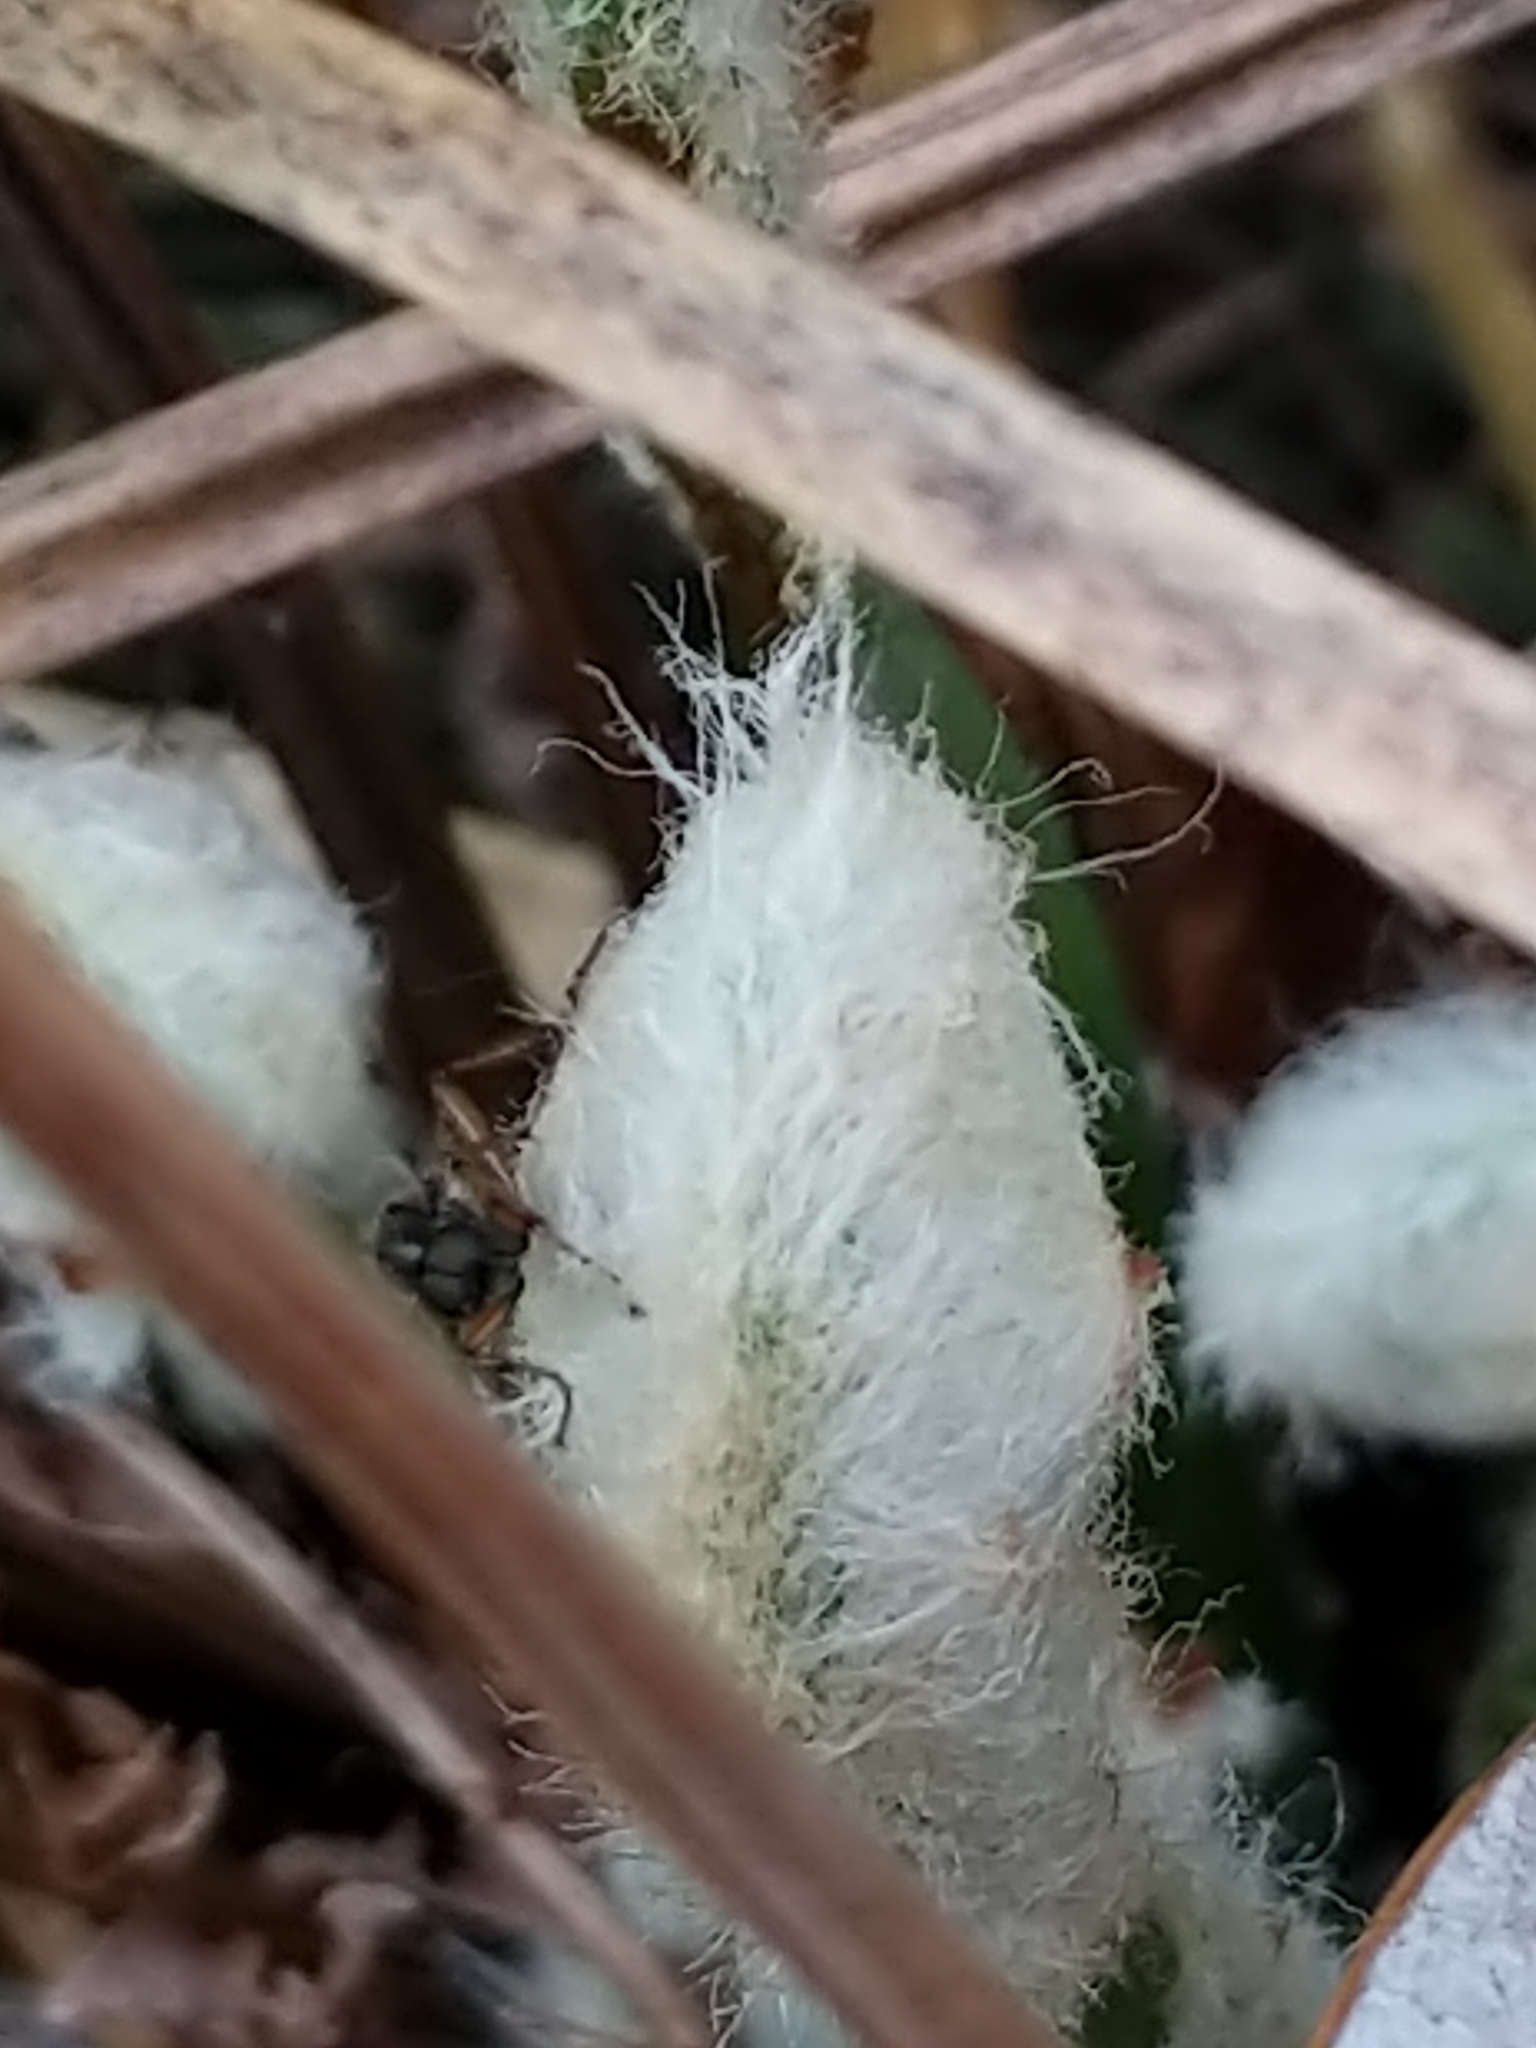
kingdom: Animalia
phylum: Arthropoda
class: Insecta
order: Diptera
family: Bibionidae
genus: Bibio
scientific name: Bibio articulatus
